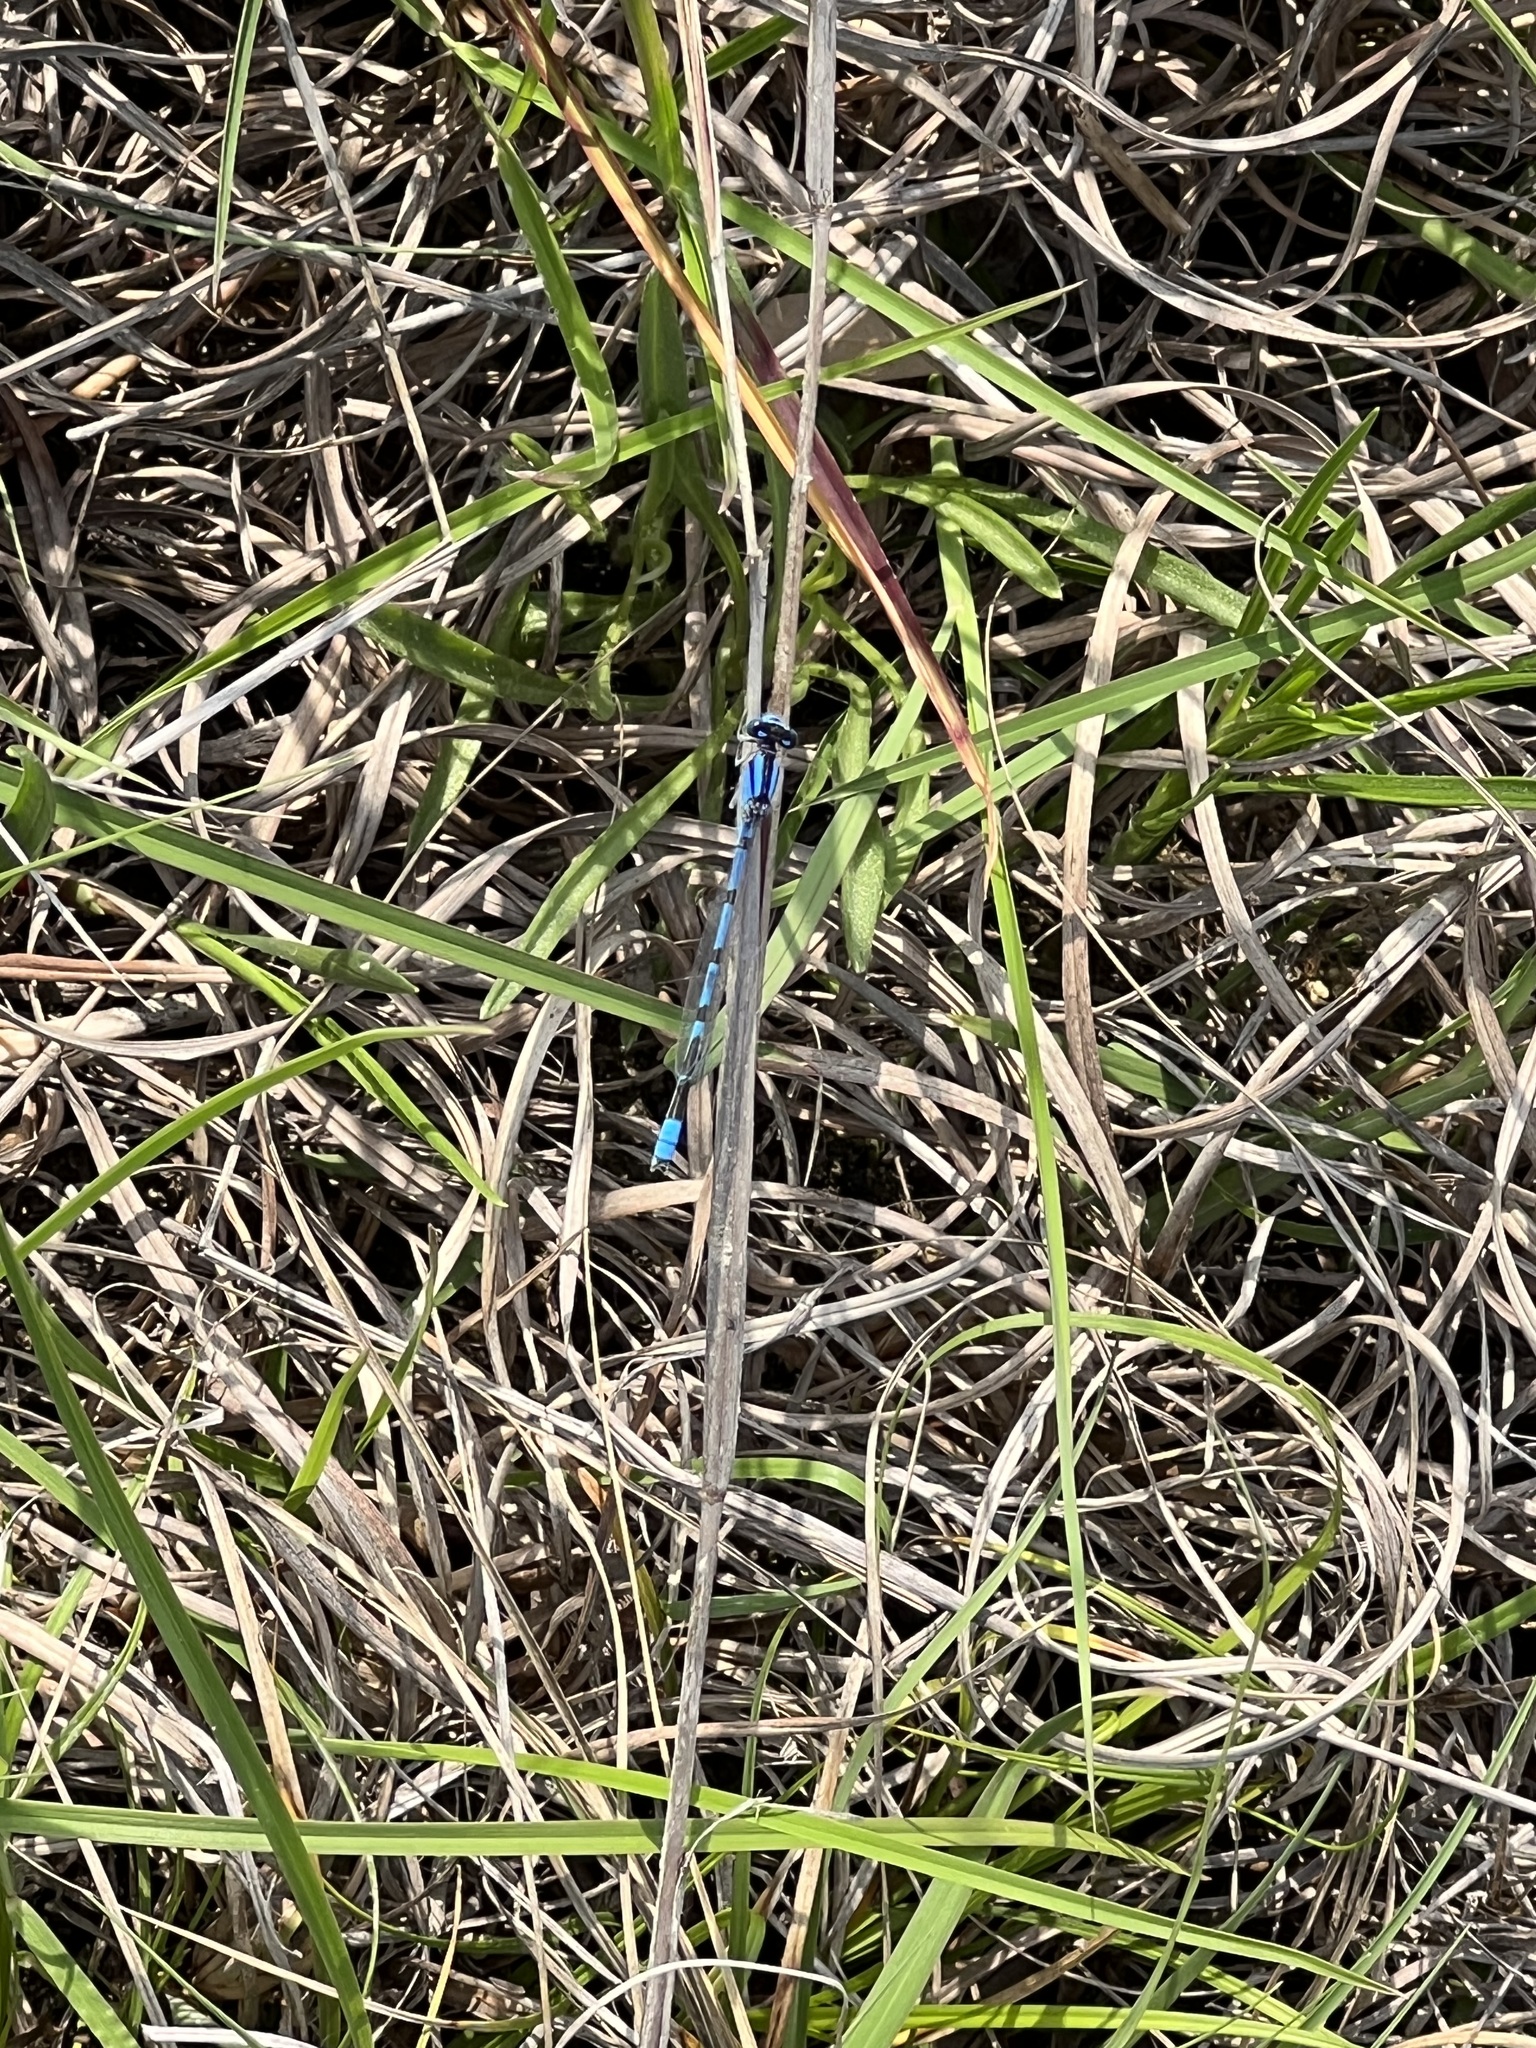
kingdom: Animalia
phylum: Arthropoda
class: Insecta
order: Odonata
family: Coenagrionidae
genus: Enallagma
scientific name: Enallagma civile
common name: Damselfly
